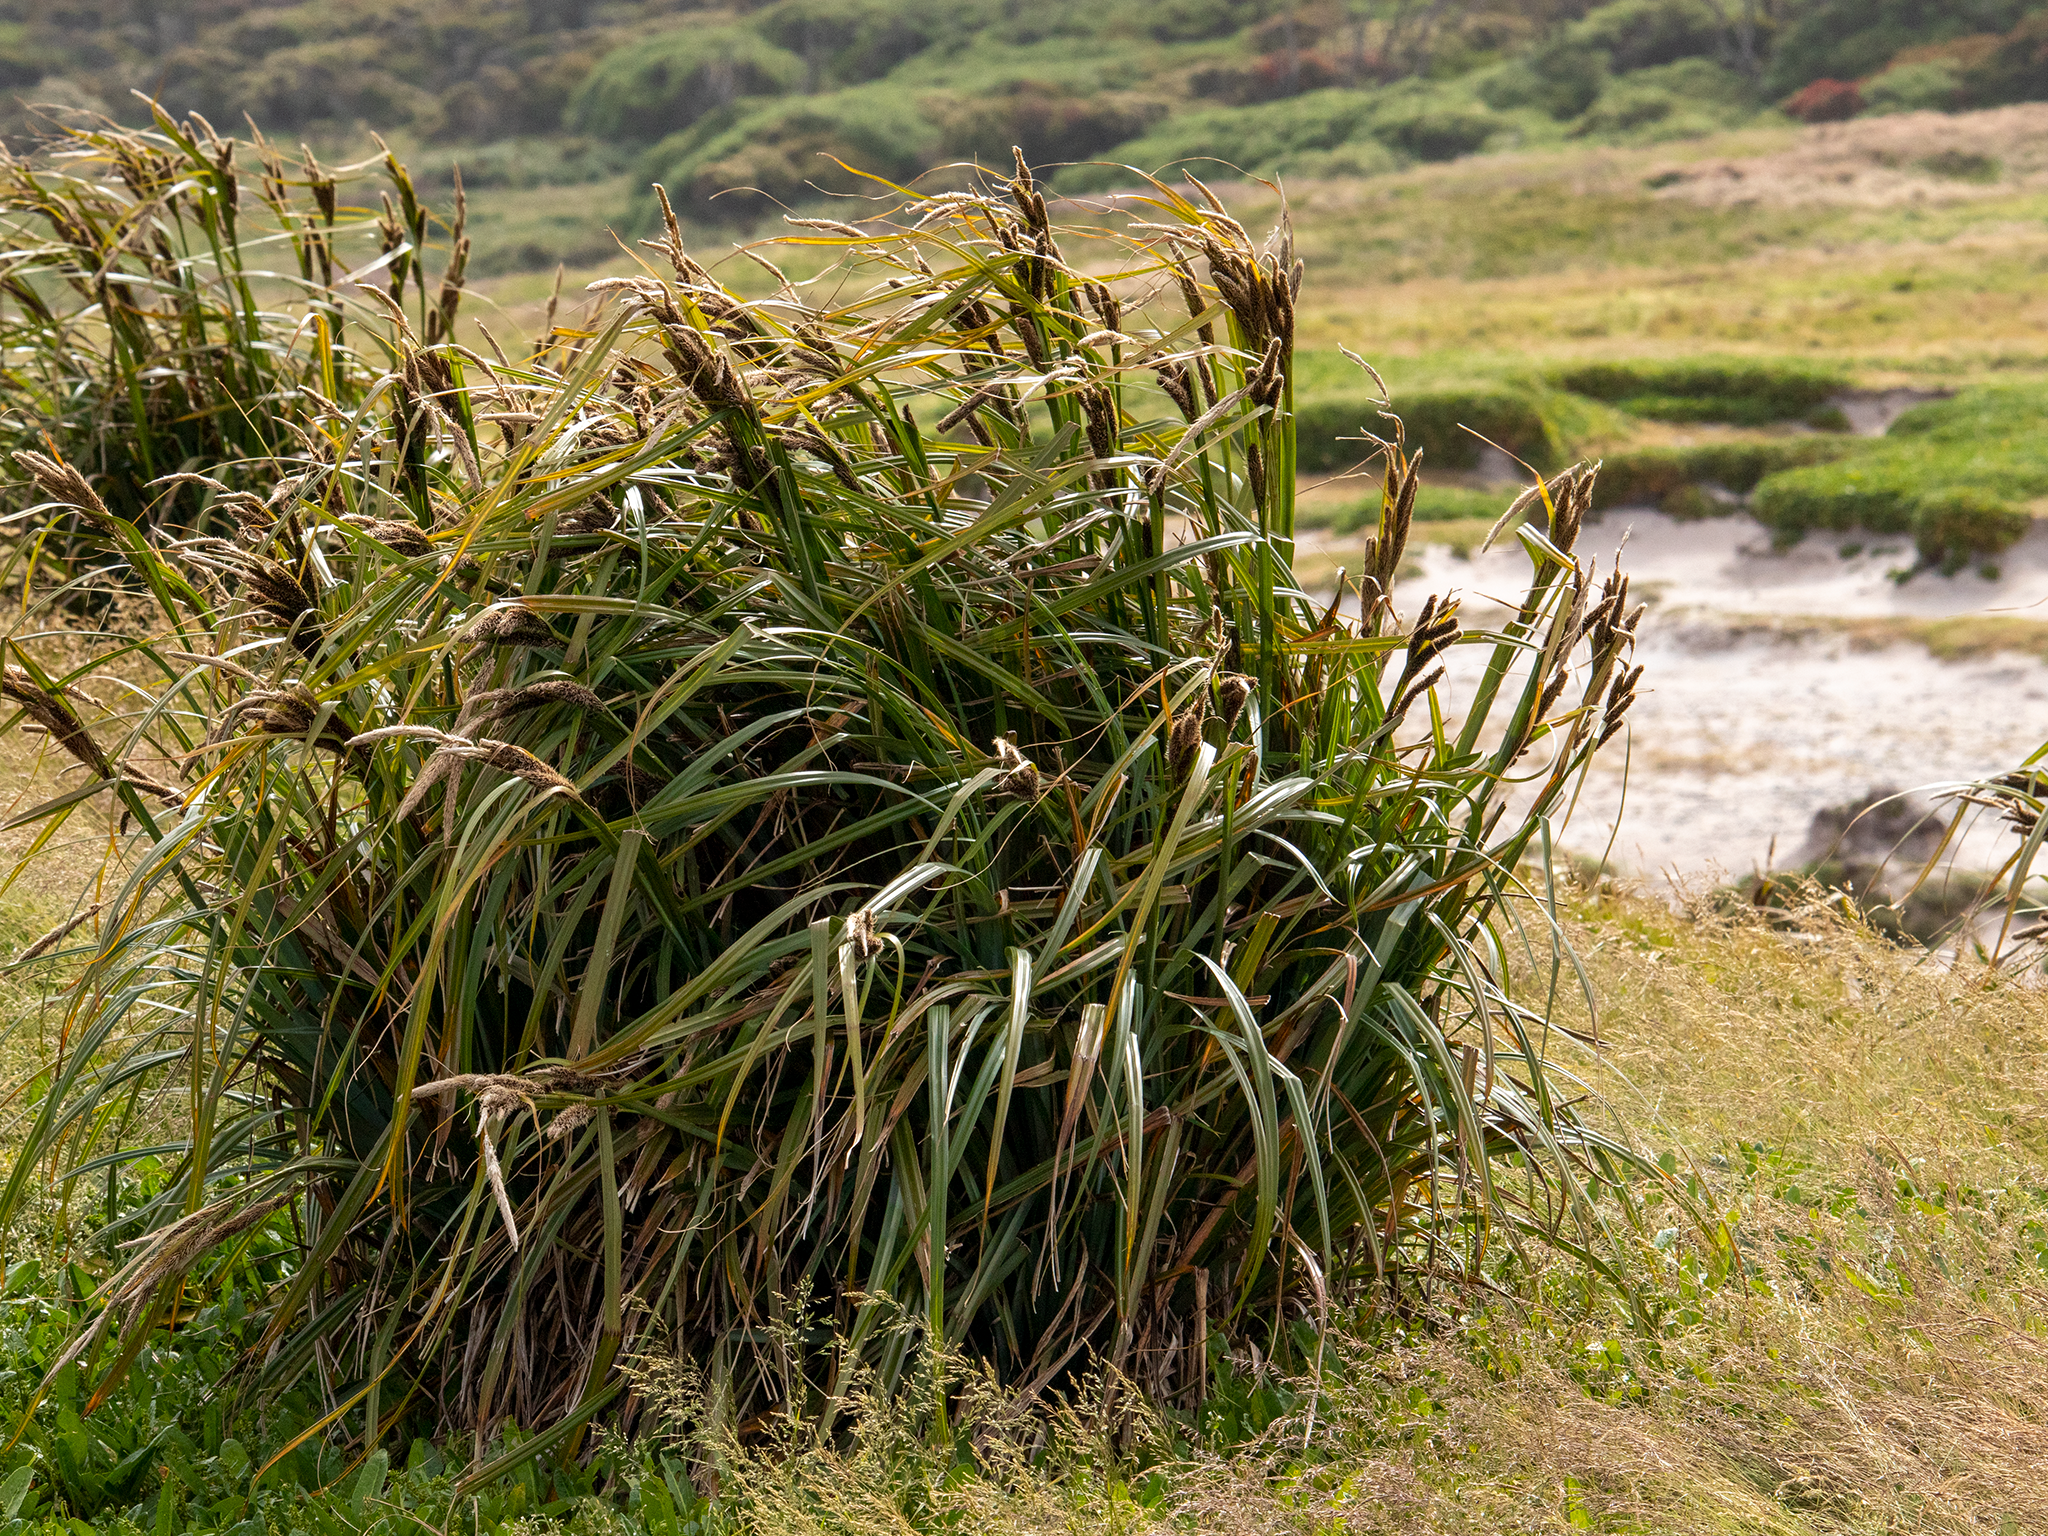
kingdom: Plantae
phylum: Tracheophyta
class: Liliopsida
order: Poales
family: Cyperaceae
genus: Carex
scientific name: Carex trifida
